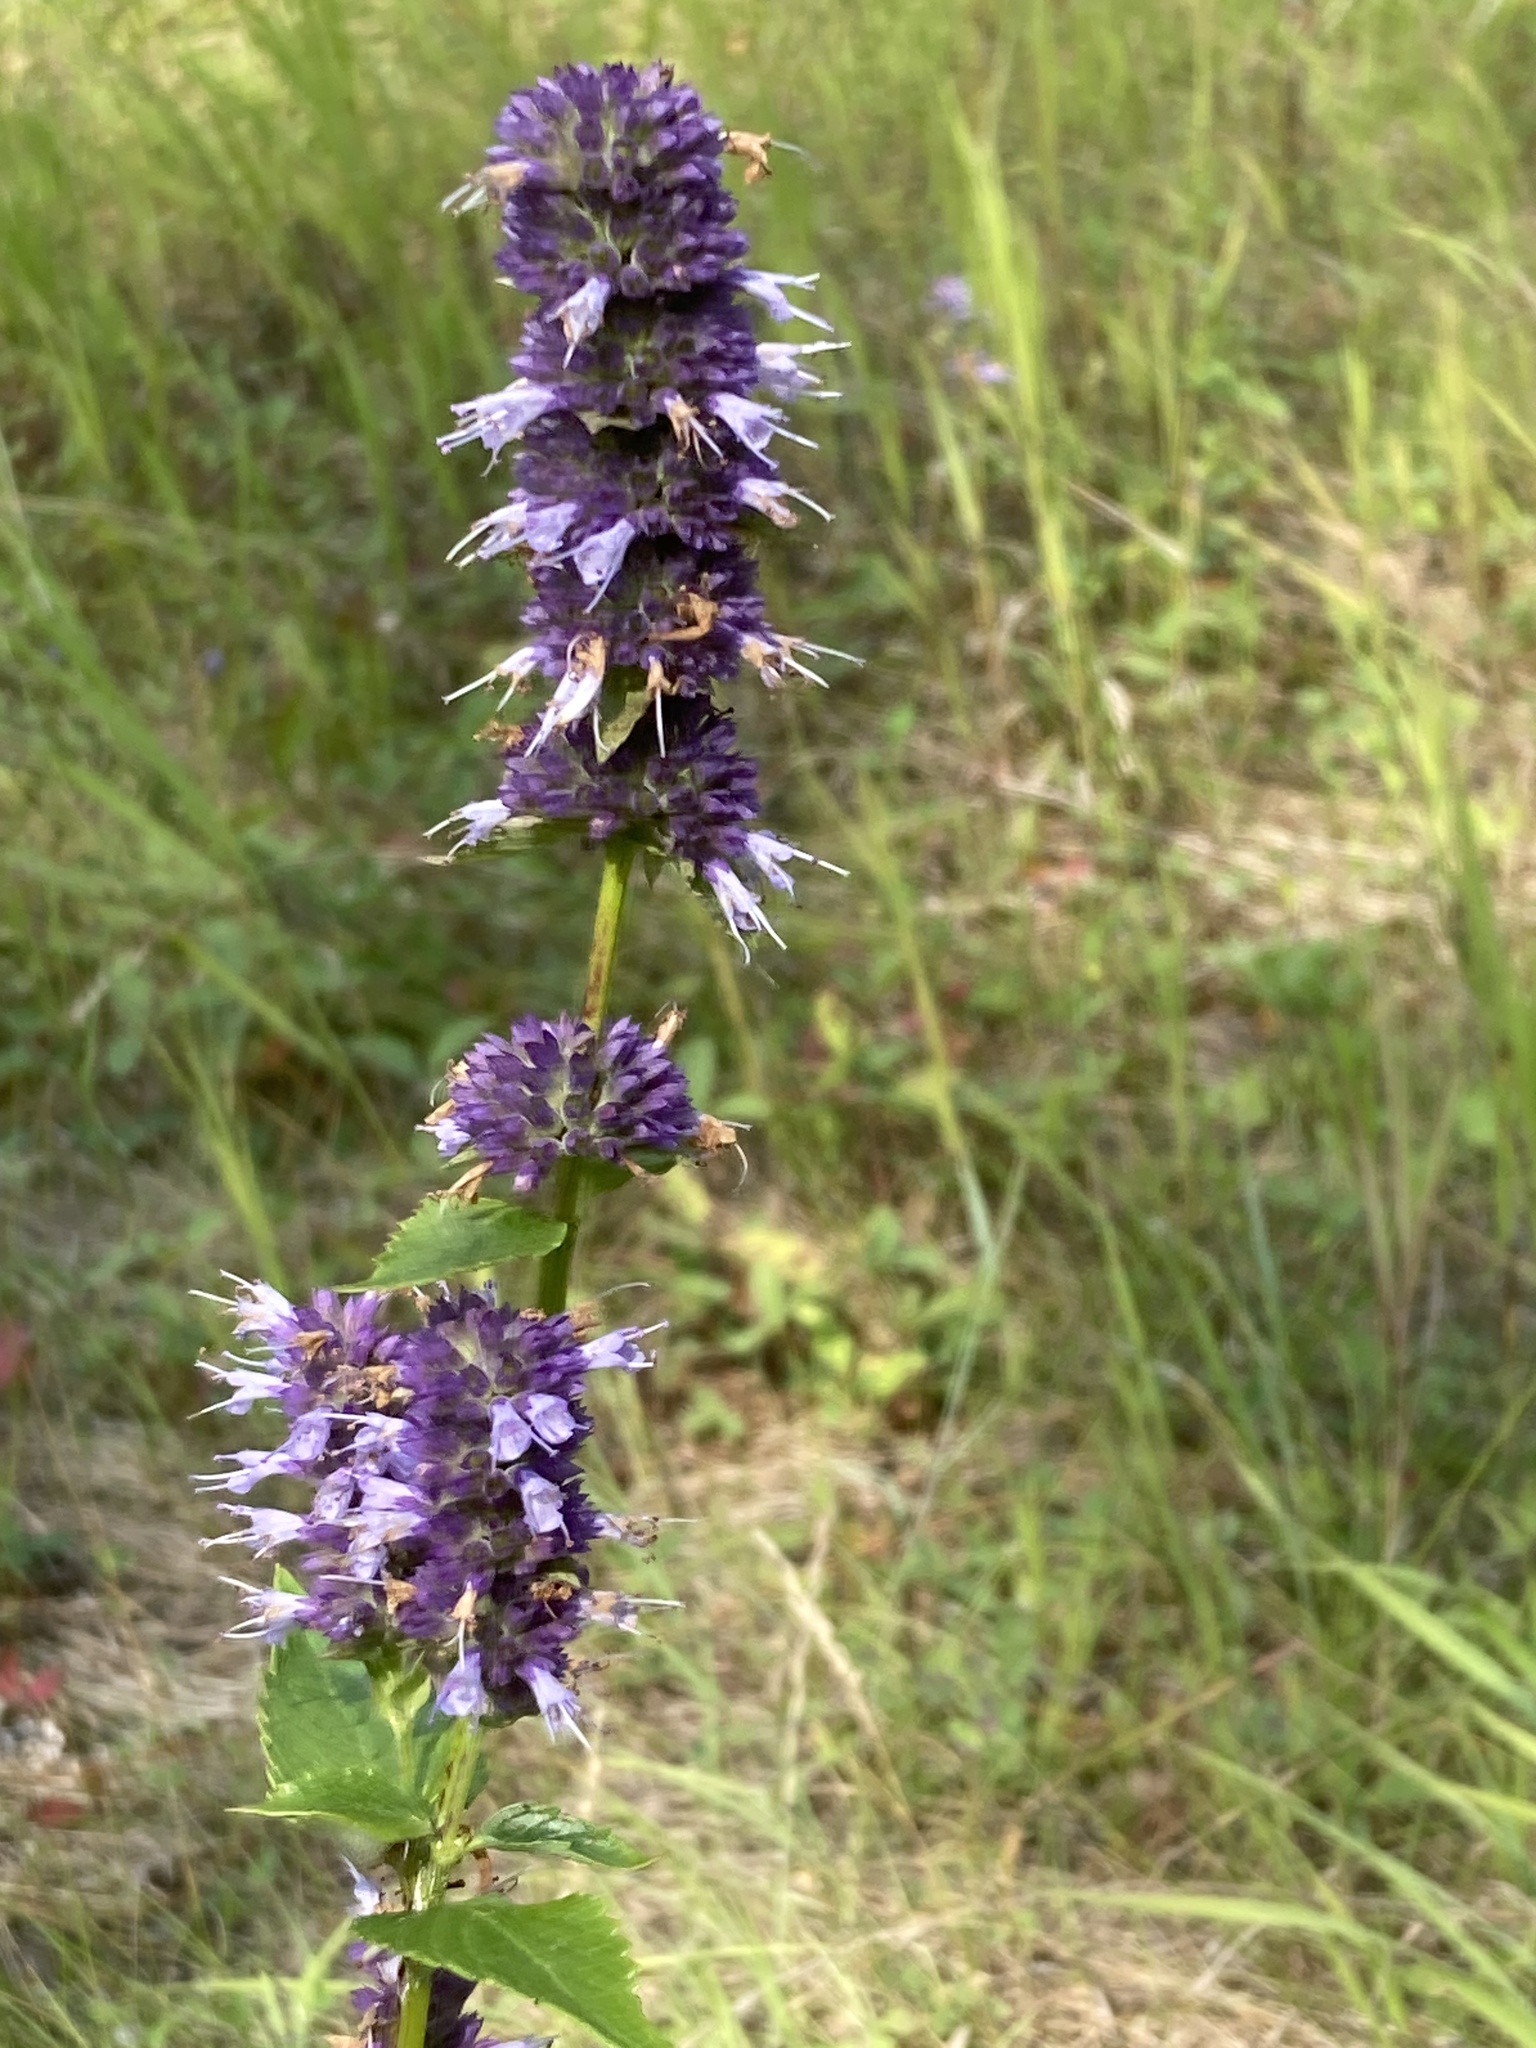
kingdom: Plantae
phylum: Tracheophyta
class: Magnoliopsida
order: Lamiales
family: Lamiaceae
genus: Agastache
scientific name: Agastache foeniculum
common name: Anise hyssop
